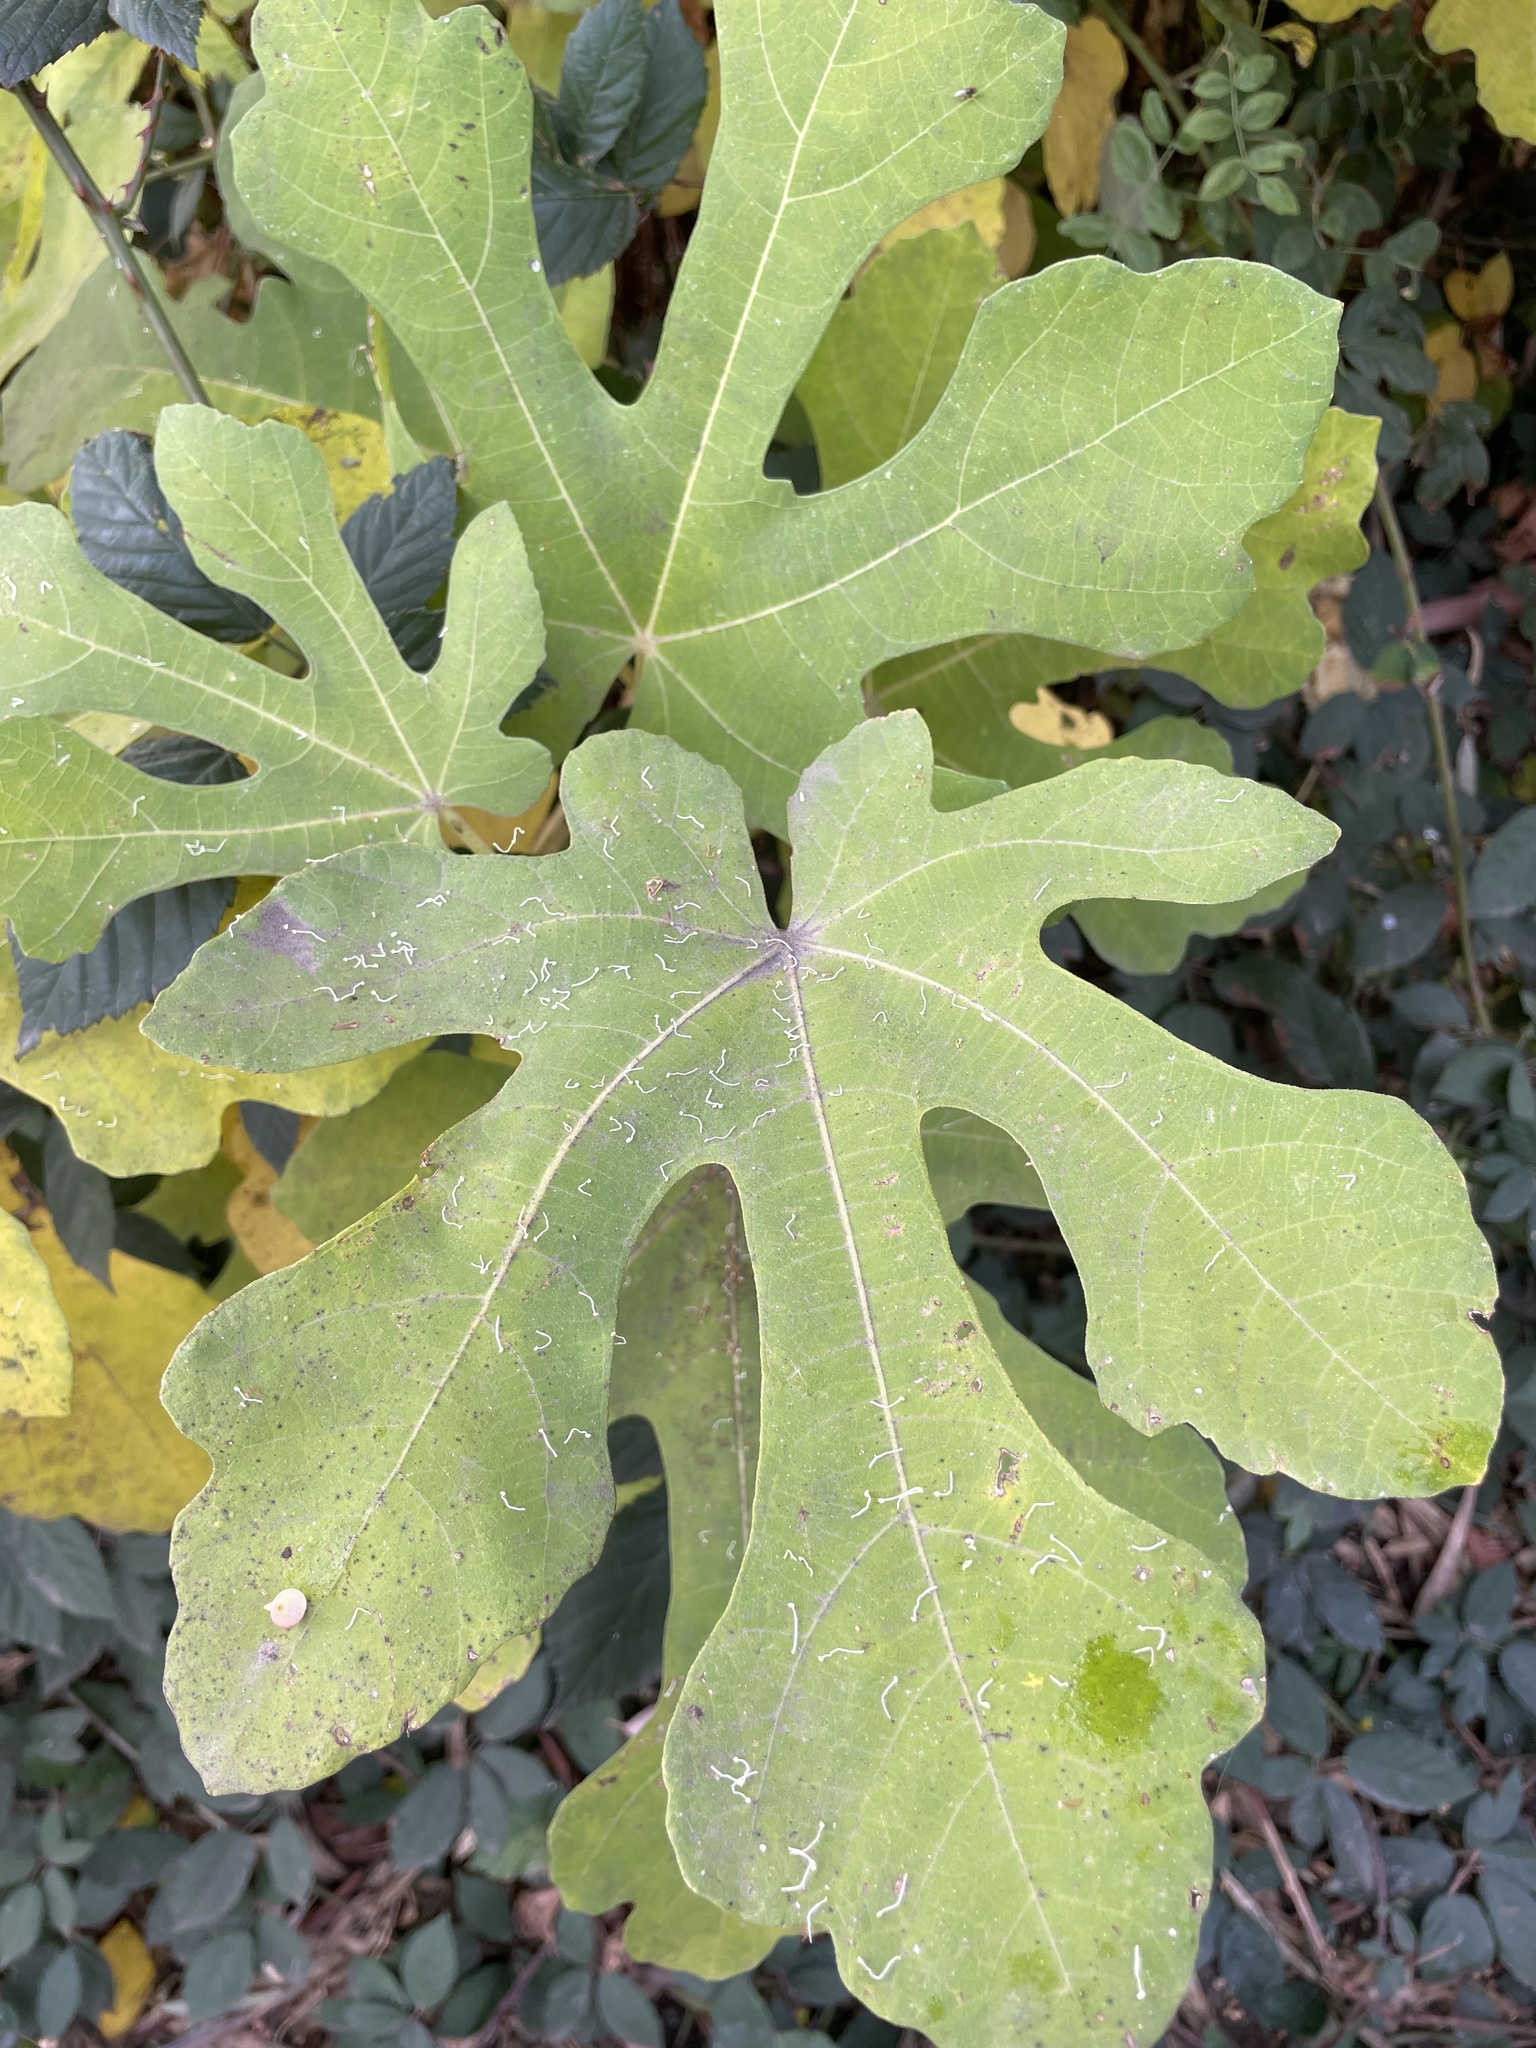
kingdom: Plantae
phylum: Tracheophyta
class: Magnoliopsida
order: Rosales
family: Moraceae
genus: Ficus
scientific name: Ficus carica
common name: Fig
